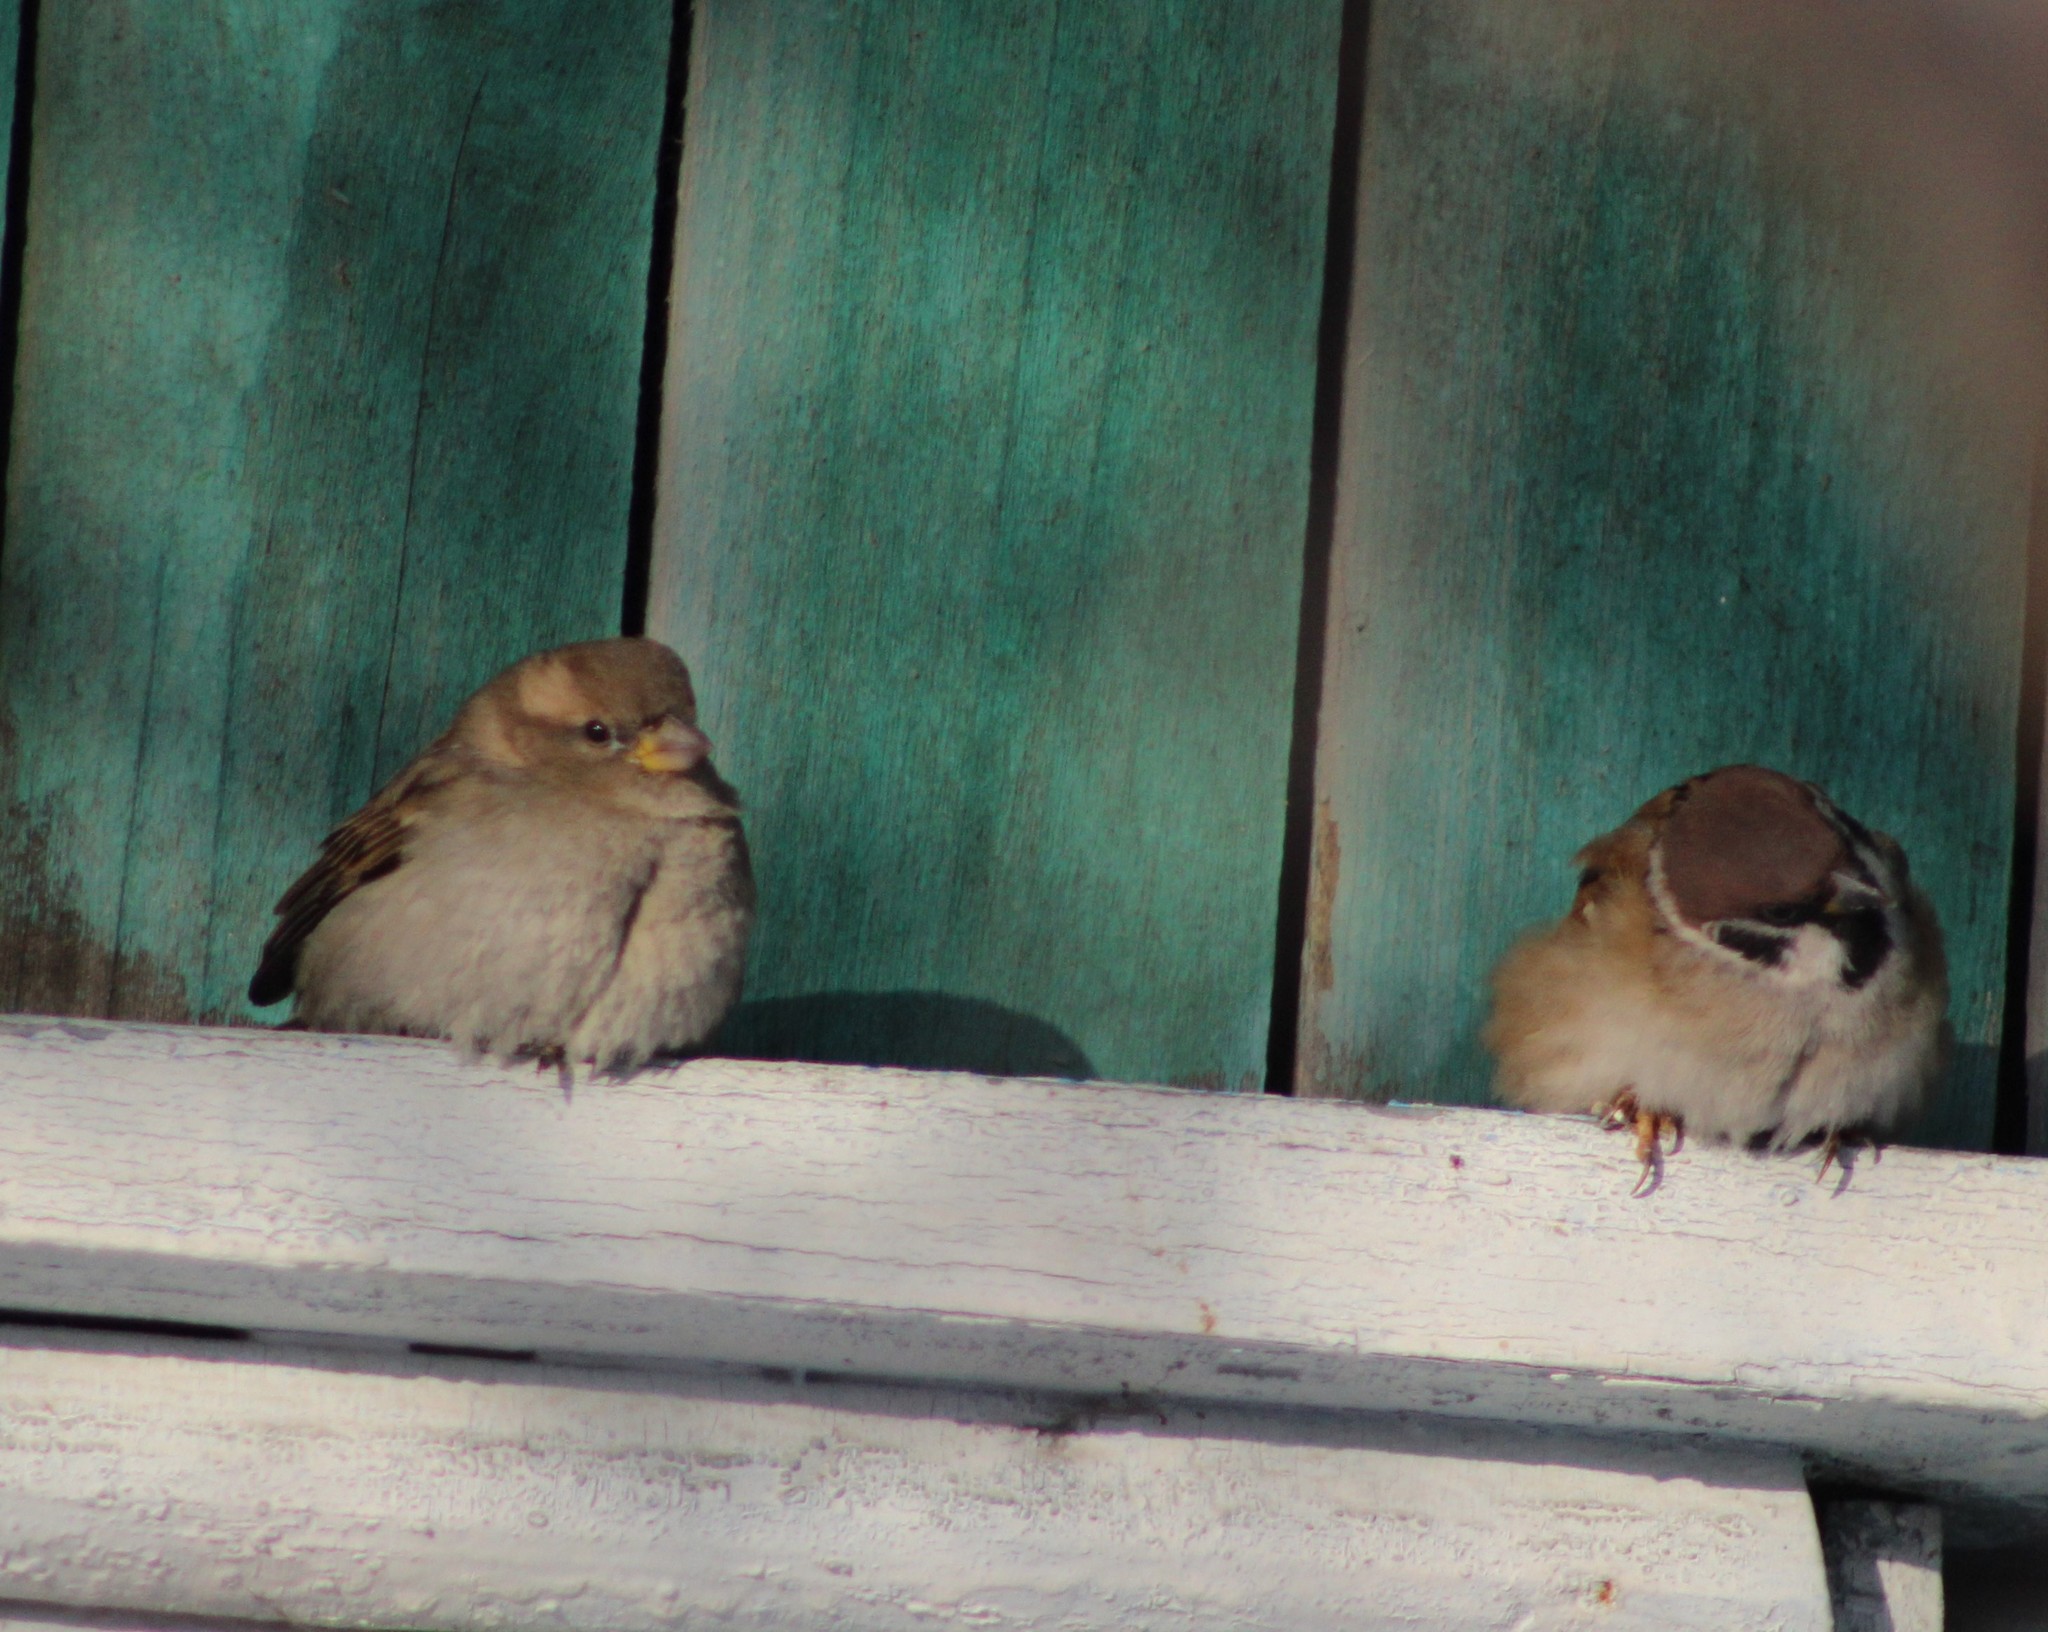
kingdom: Animalia
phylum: Chordata
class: Aves
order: Passeriformes
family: Passeridae
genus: Passer
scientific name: Passer montanus
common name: Eurasian tree sparrow
